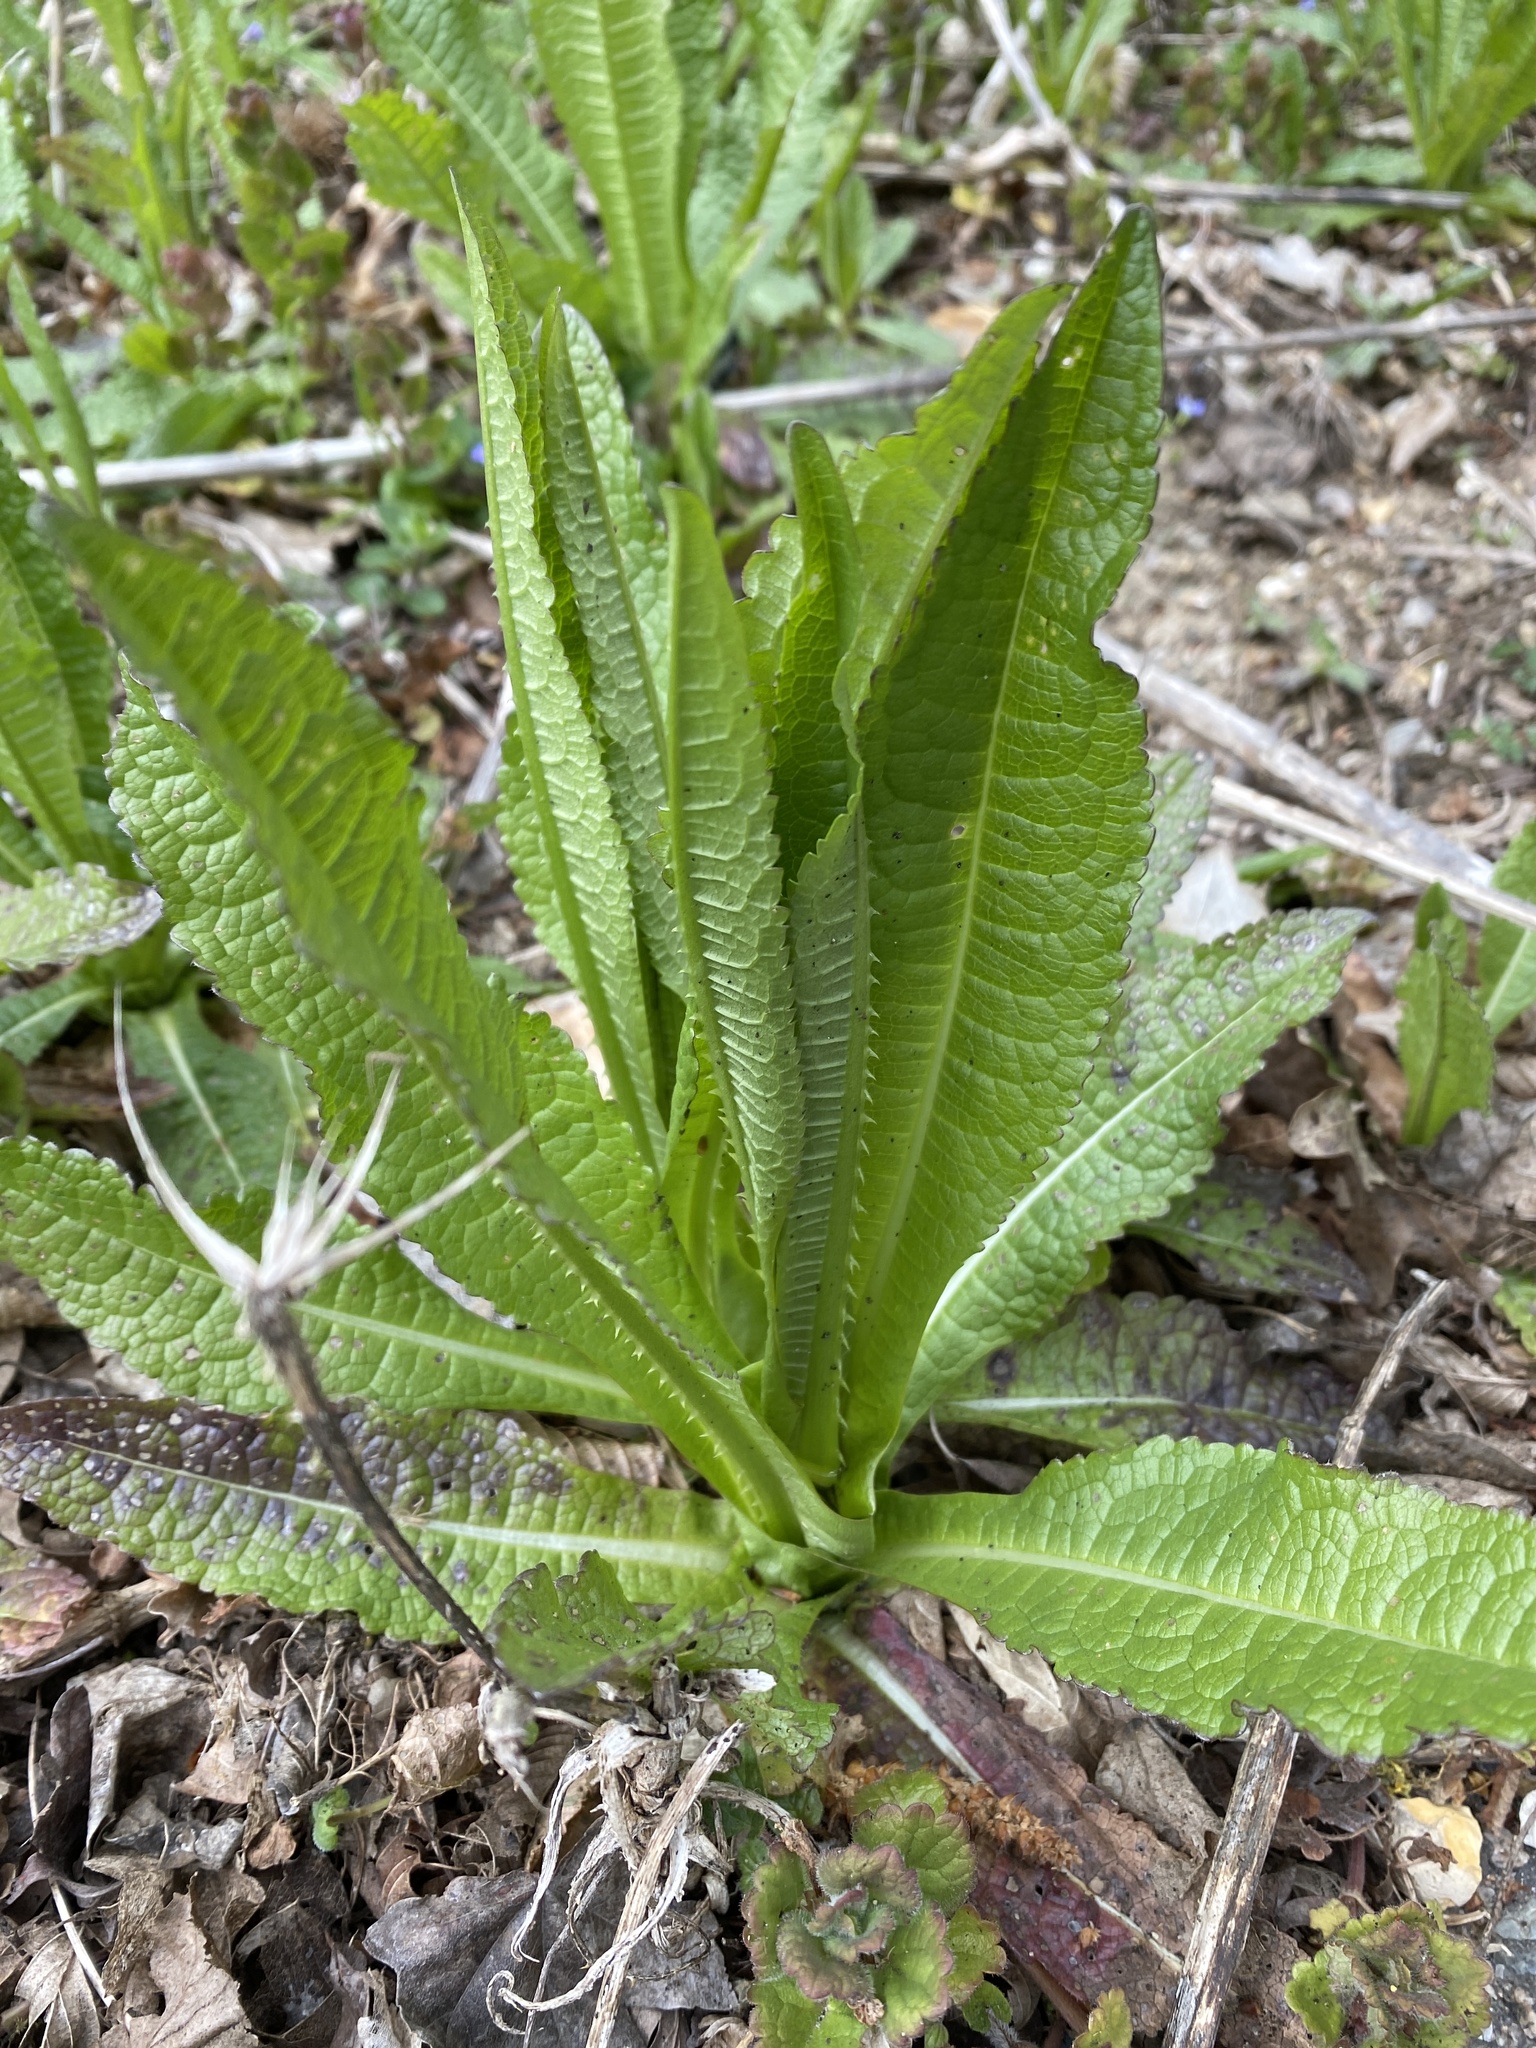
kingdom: Plantae
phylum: Tracheophyta
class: Magnoliopsida
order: Dipsacales
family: Caprifoliaceae
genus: Dipsacus
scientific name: Dipsacus fullonum
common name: Teasel
